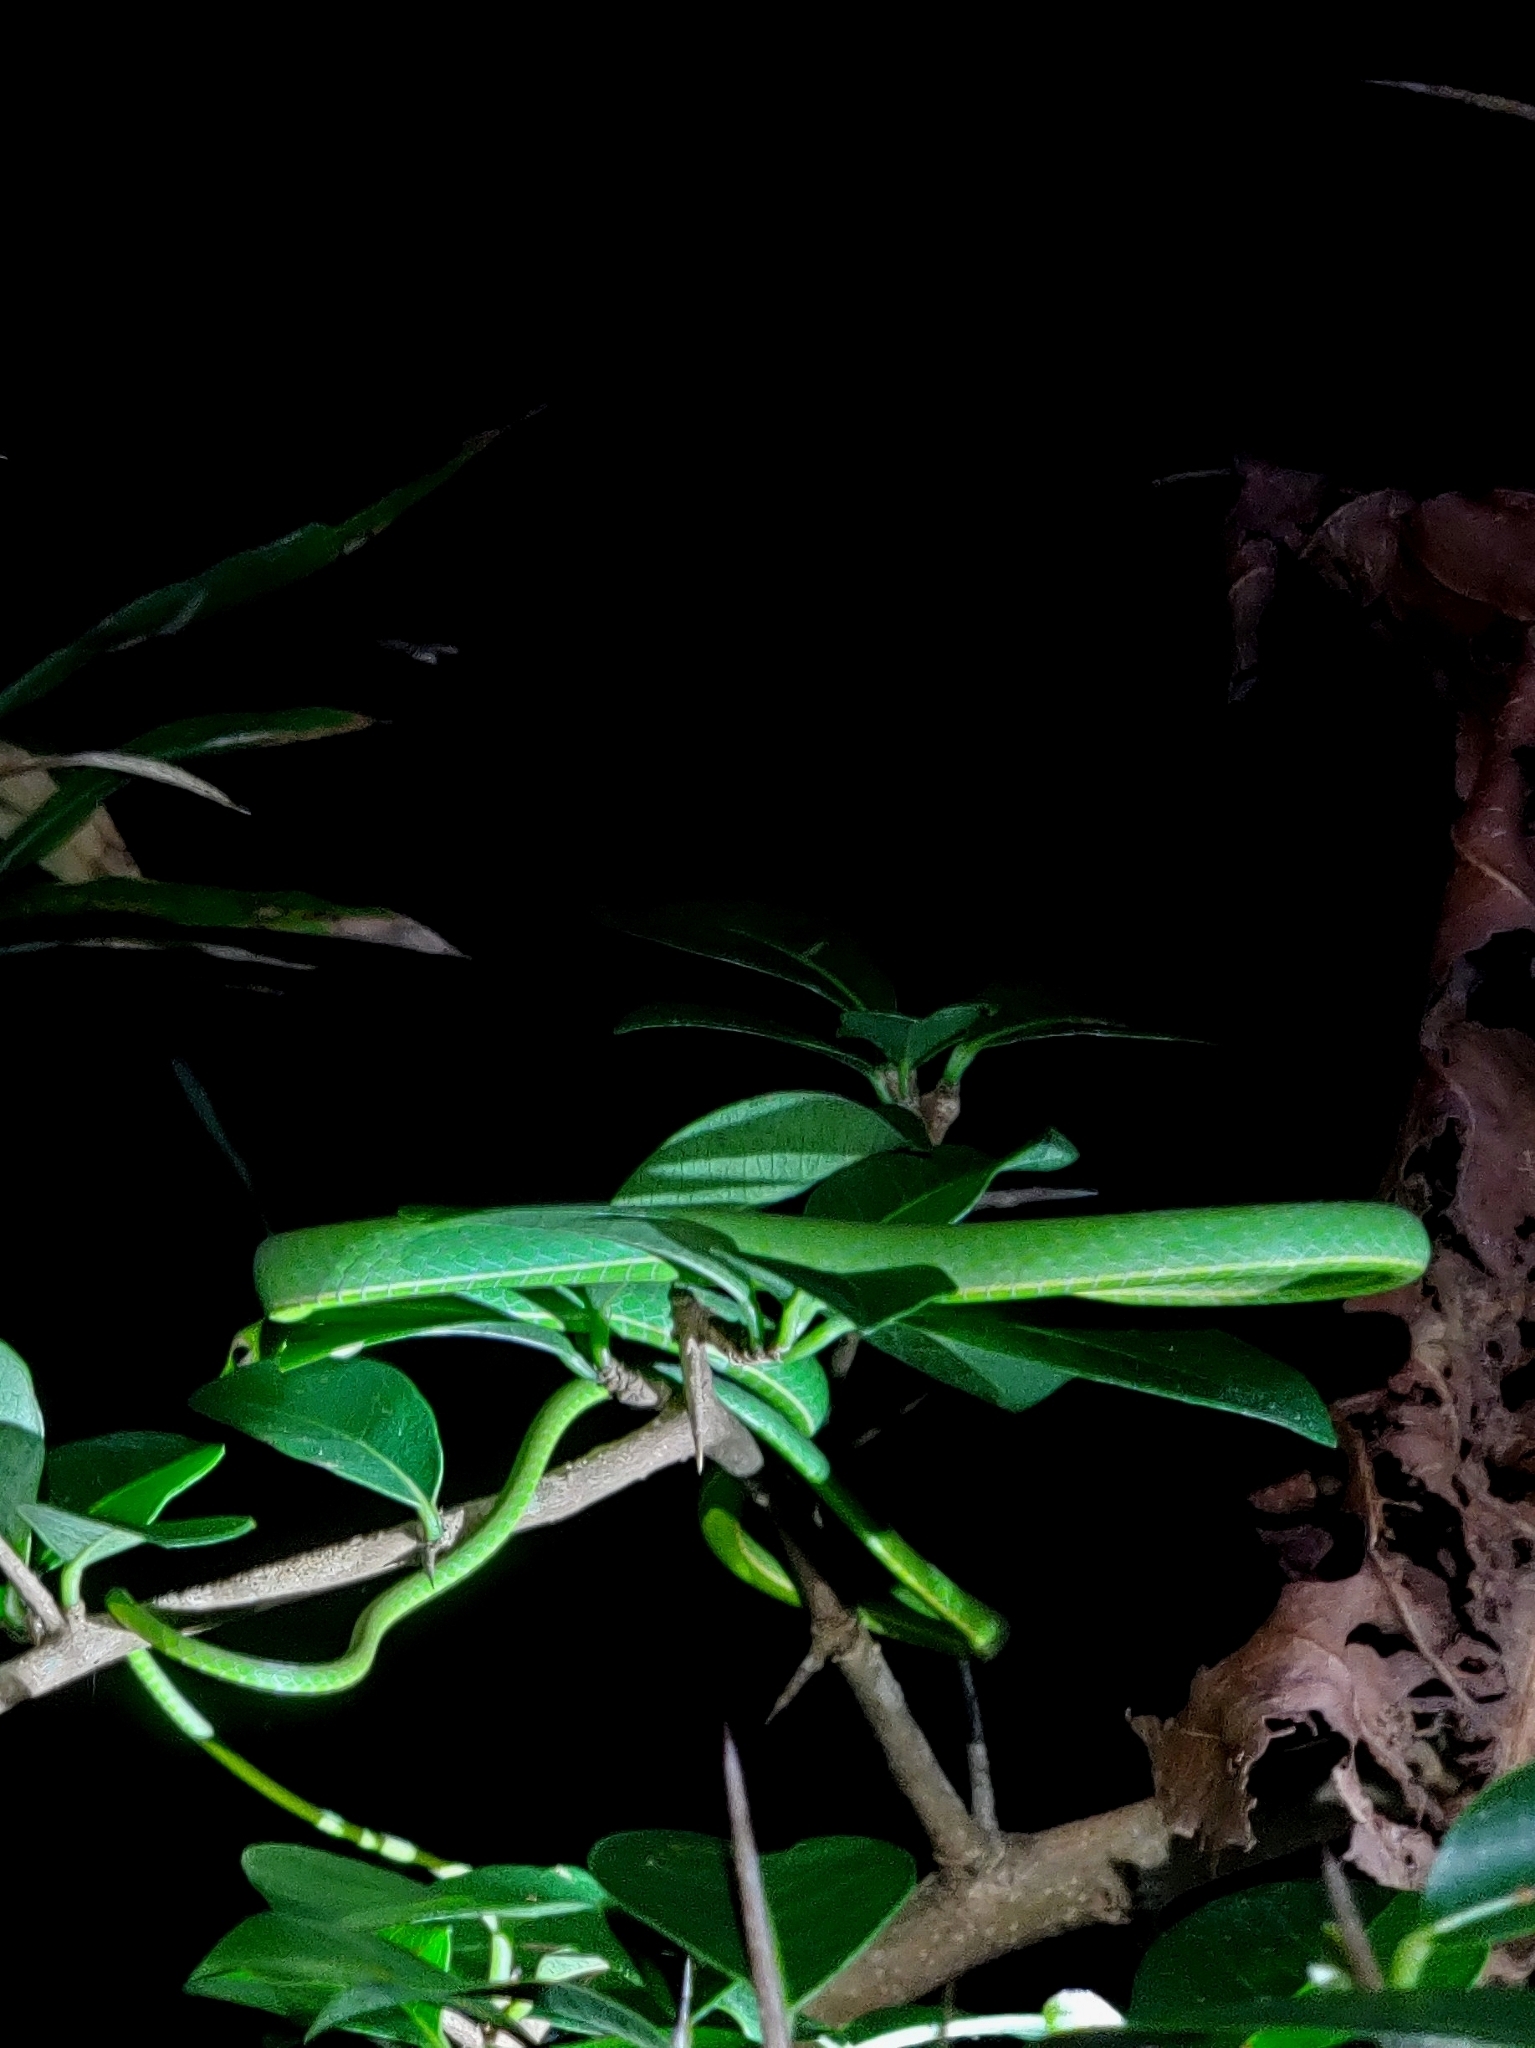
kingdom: Animalia
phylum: Chordata
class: Squamata
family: Colubridae
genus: Ahaetulla
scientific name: Ahaetulla borealis
